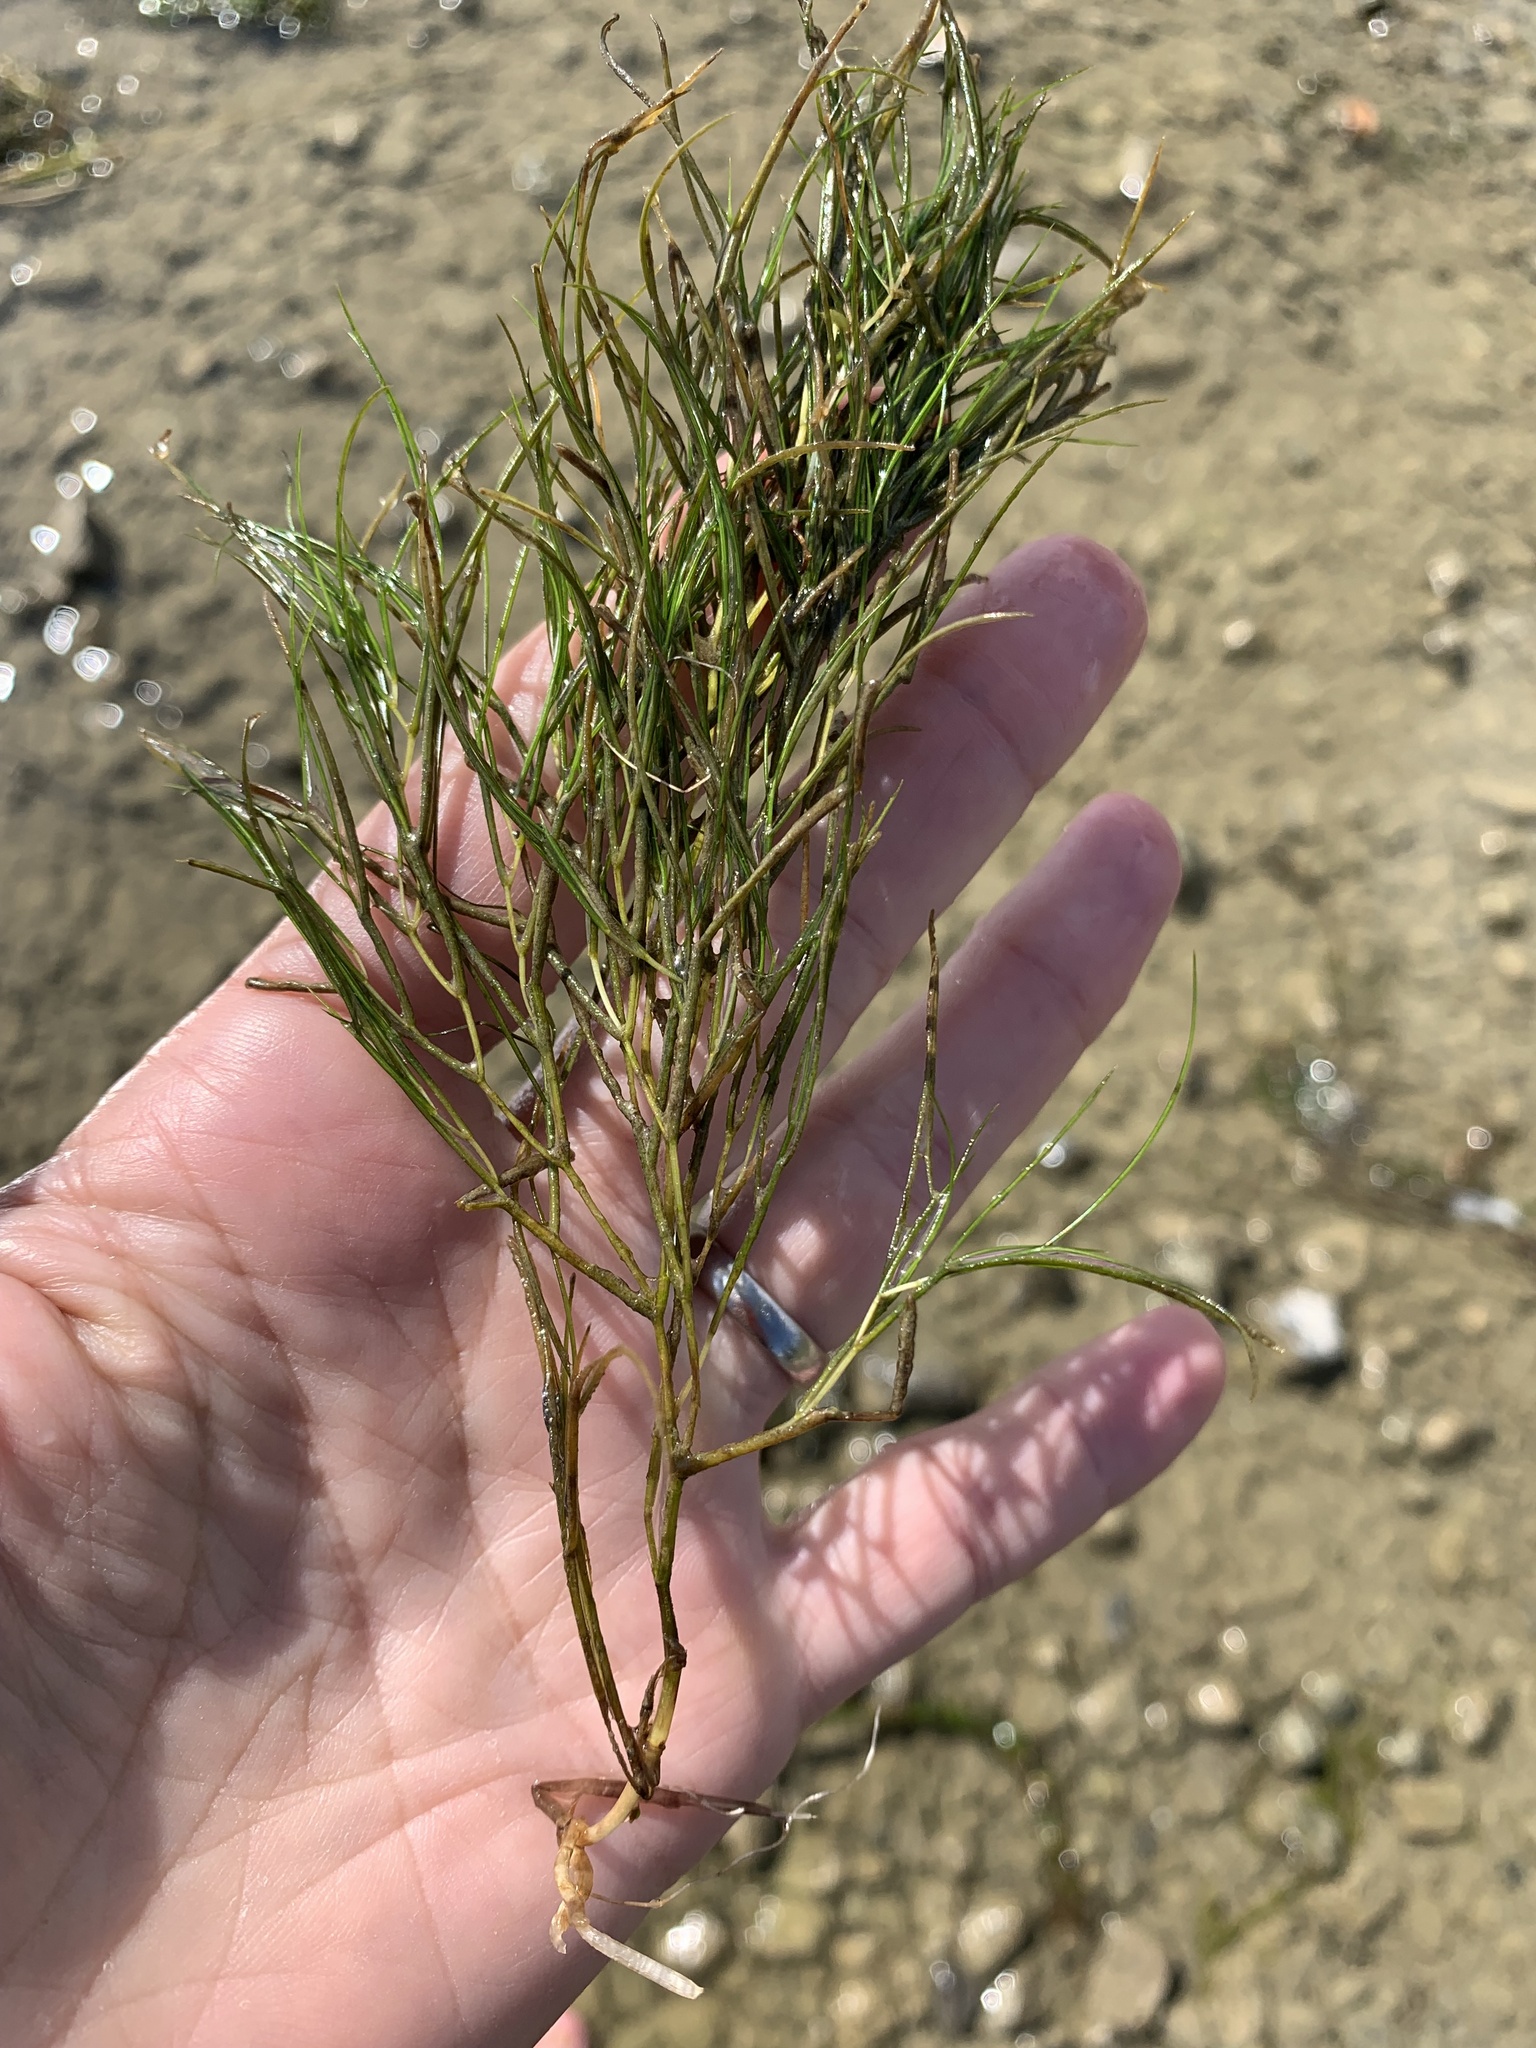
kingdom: Plantae
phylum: Tracheophyta
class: Liliopsida
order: Alismatales
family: Potamogetonaceae
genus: Stuckenia
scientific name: Stuckenia pectinata
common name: Sago pondweed
